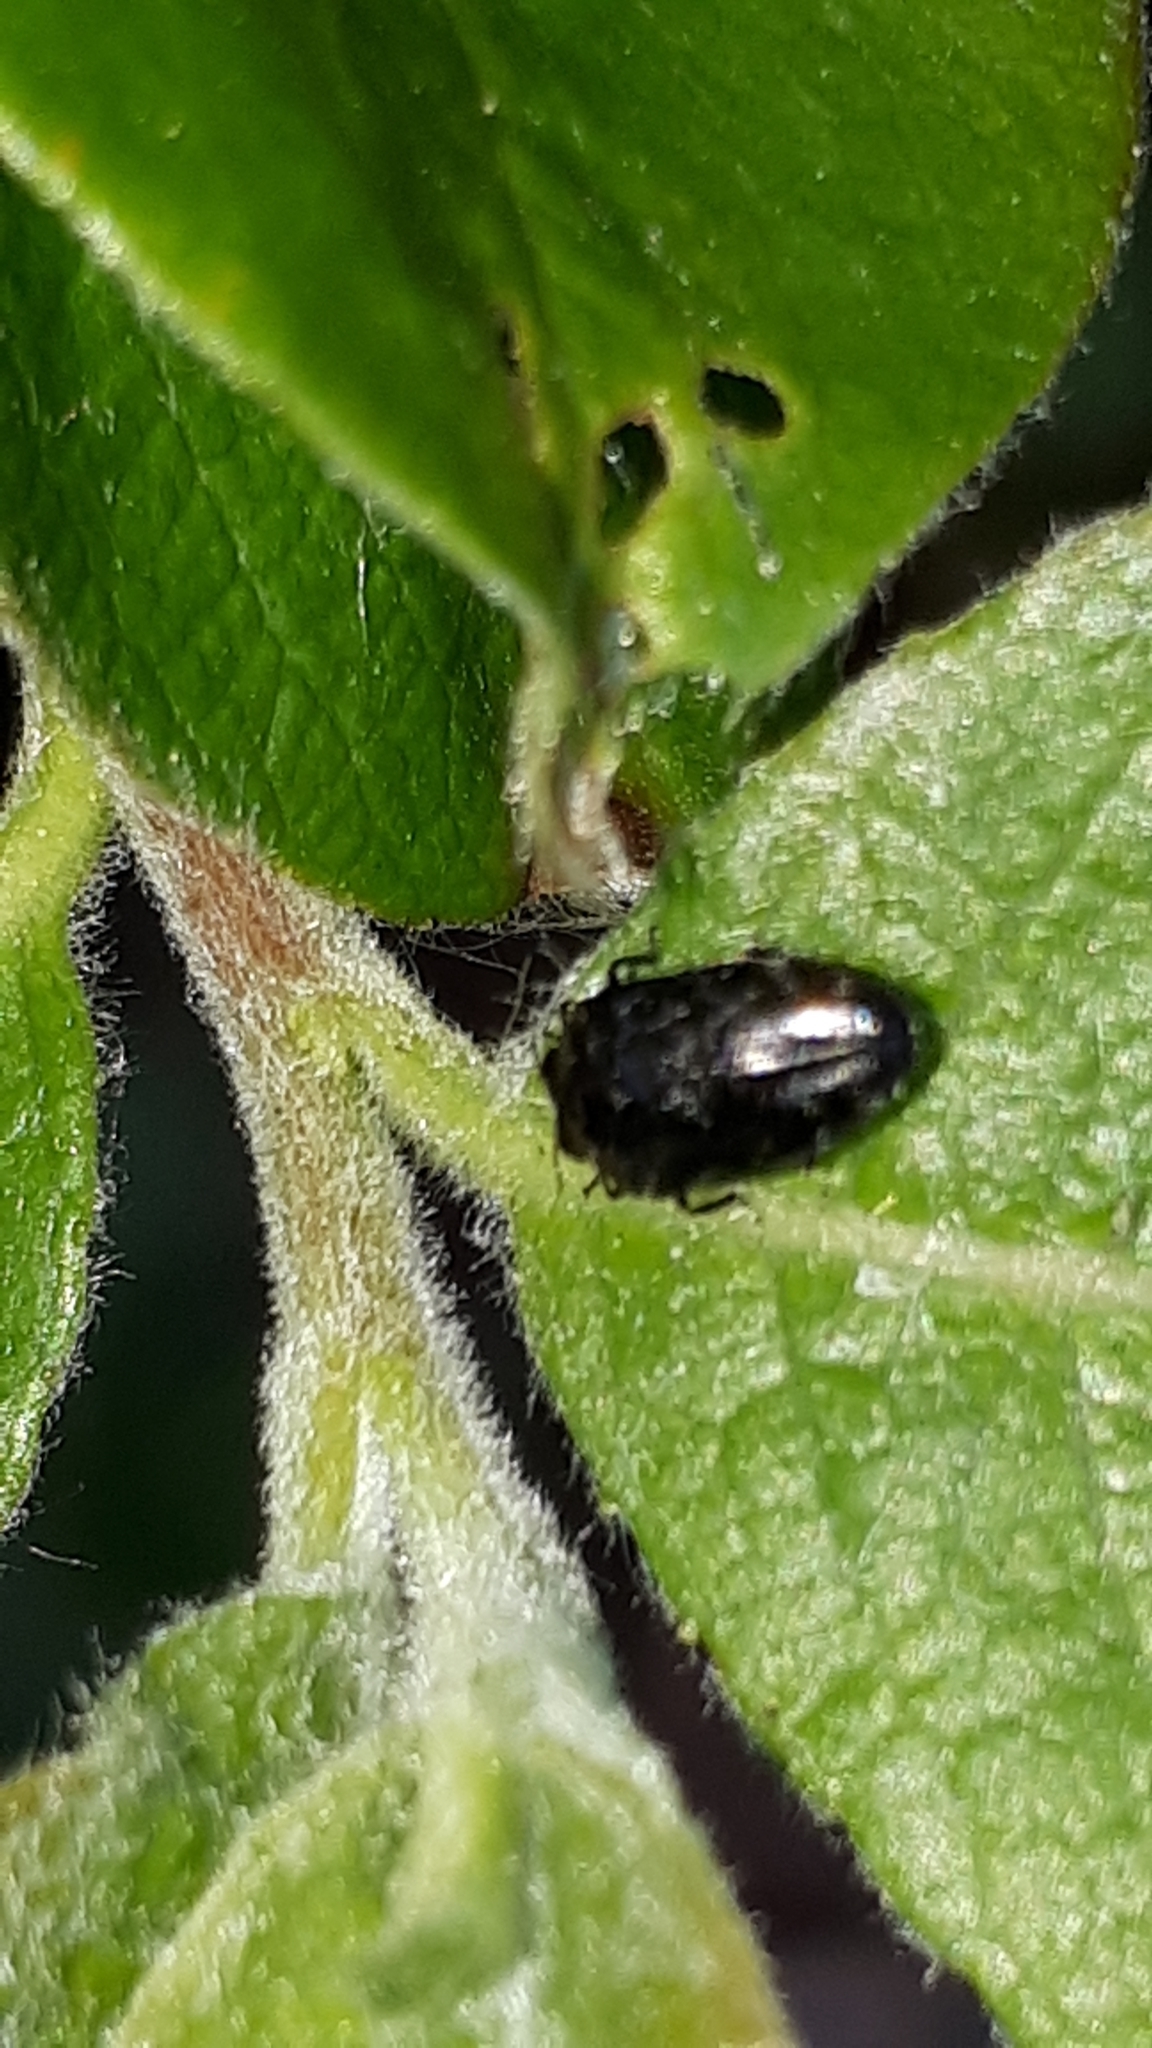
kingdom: Animalia
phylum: Arthropoda
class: Insecta
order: Coleoptera
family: Buprestidae
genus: Trachys
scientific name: Trachys minutus
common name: Metallic wood-boring beetle
